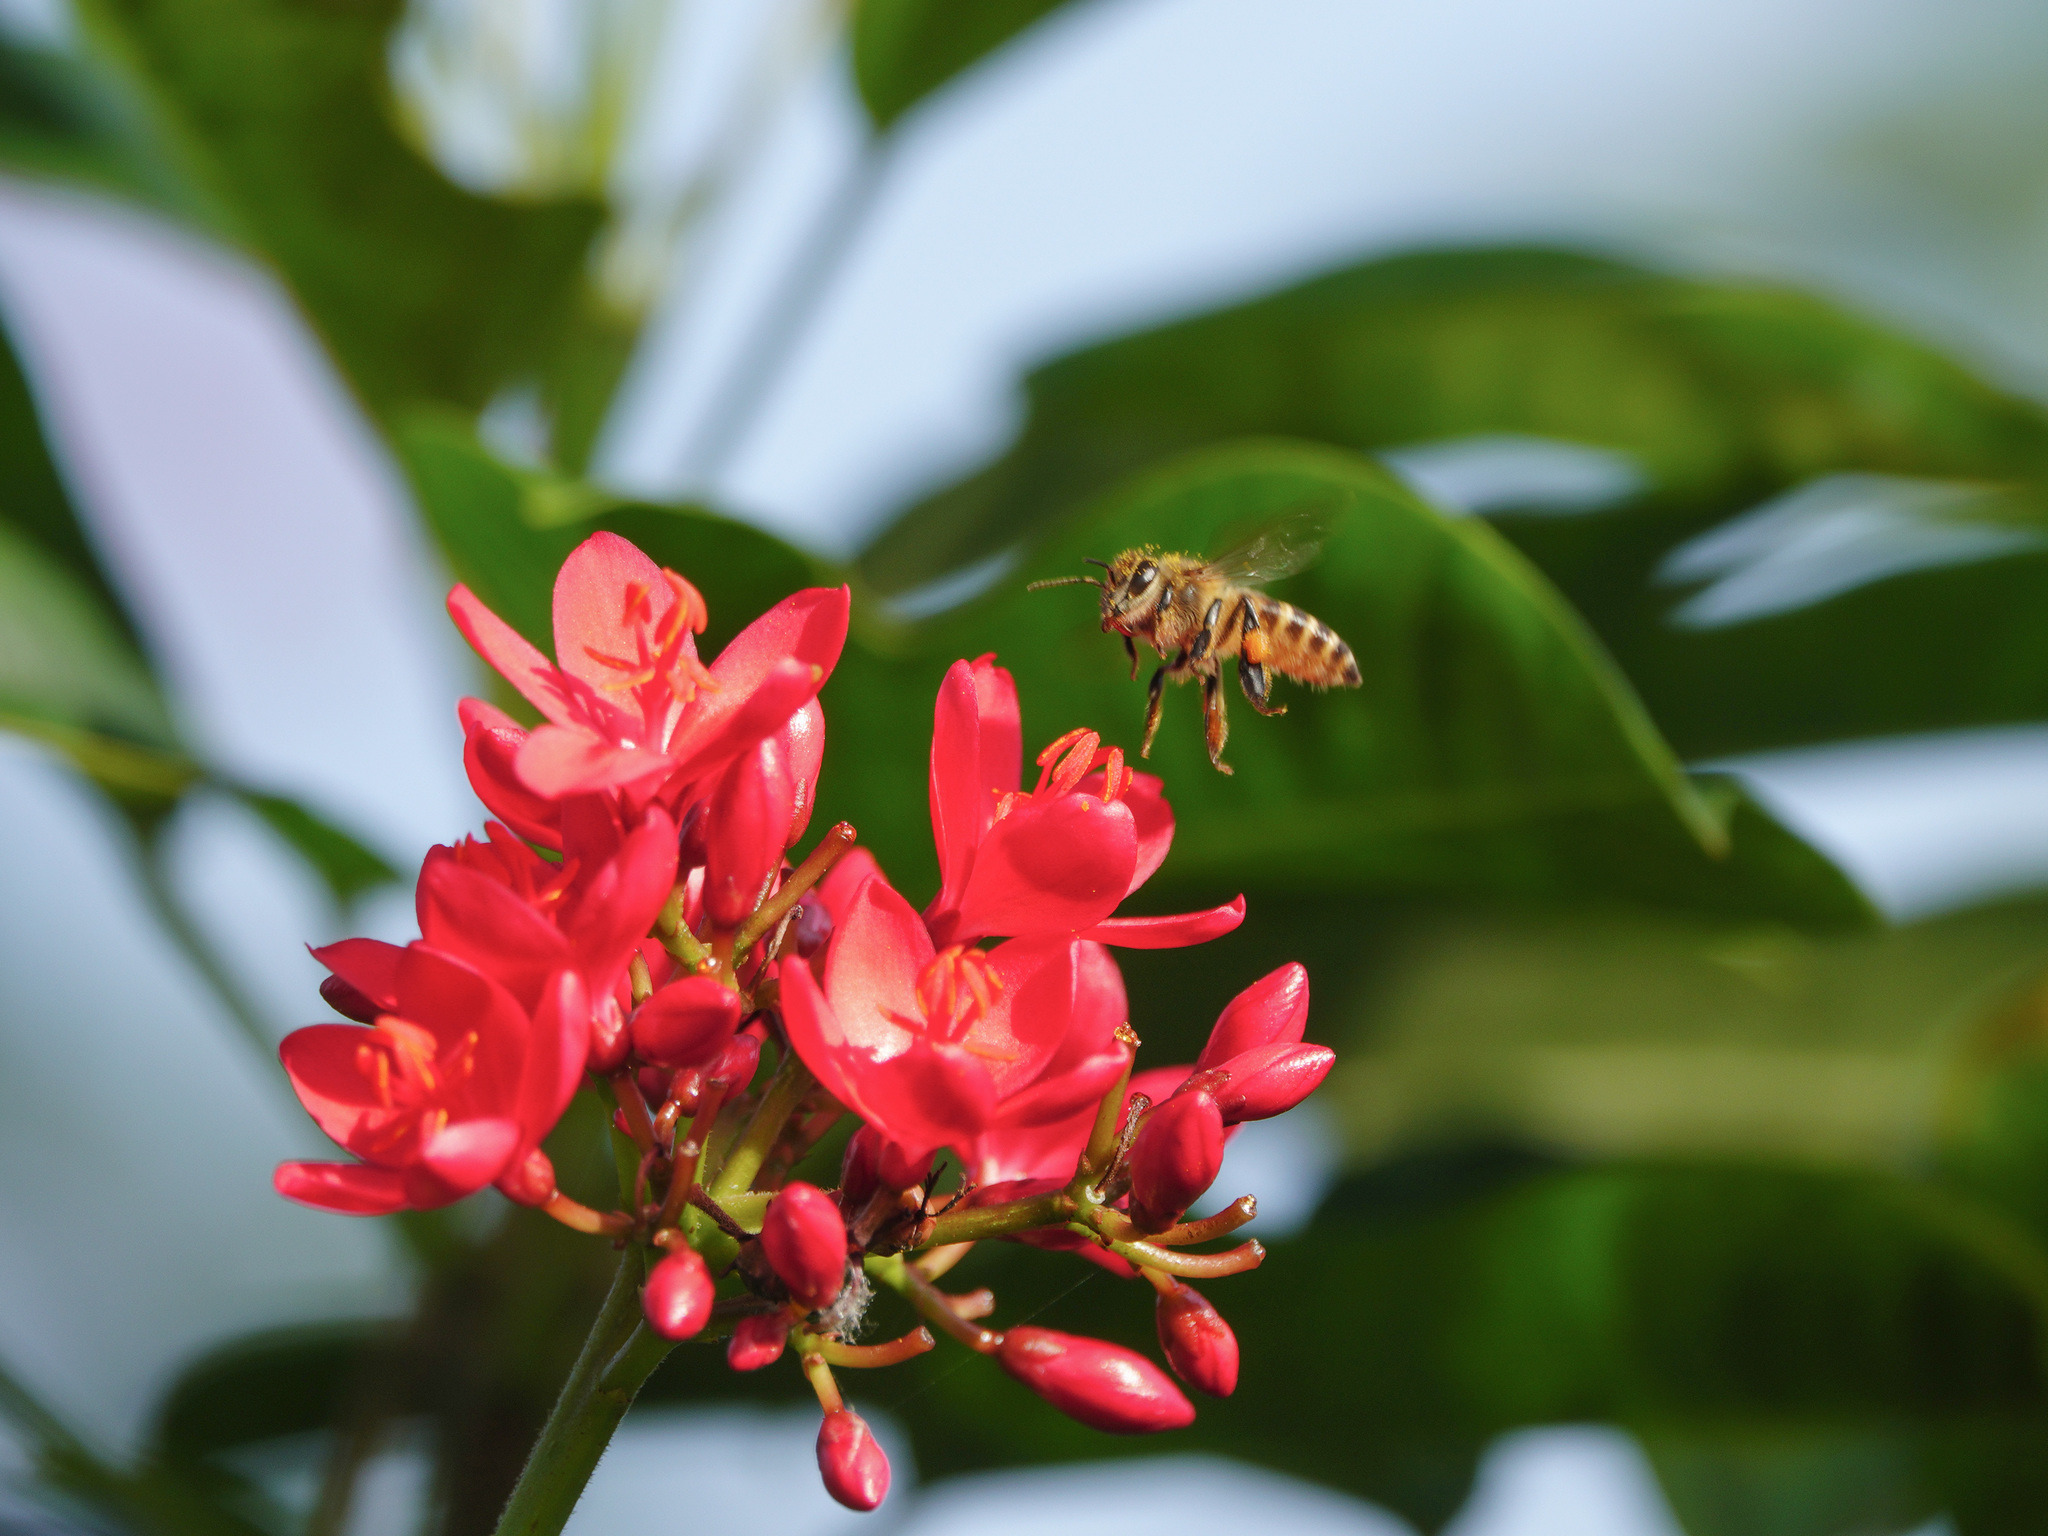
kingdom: Animalia
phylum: Arthropoda
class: Insecta
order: Hymenoptera
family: Apidae
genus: Apis
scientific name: Apis cerana
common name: Honey bee
